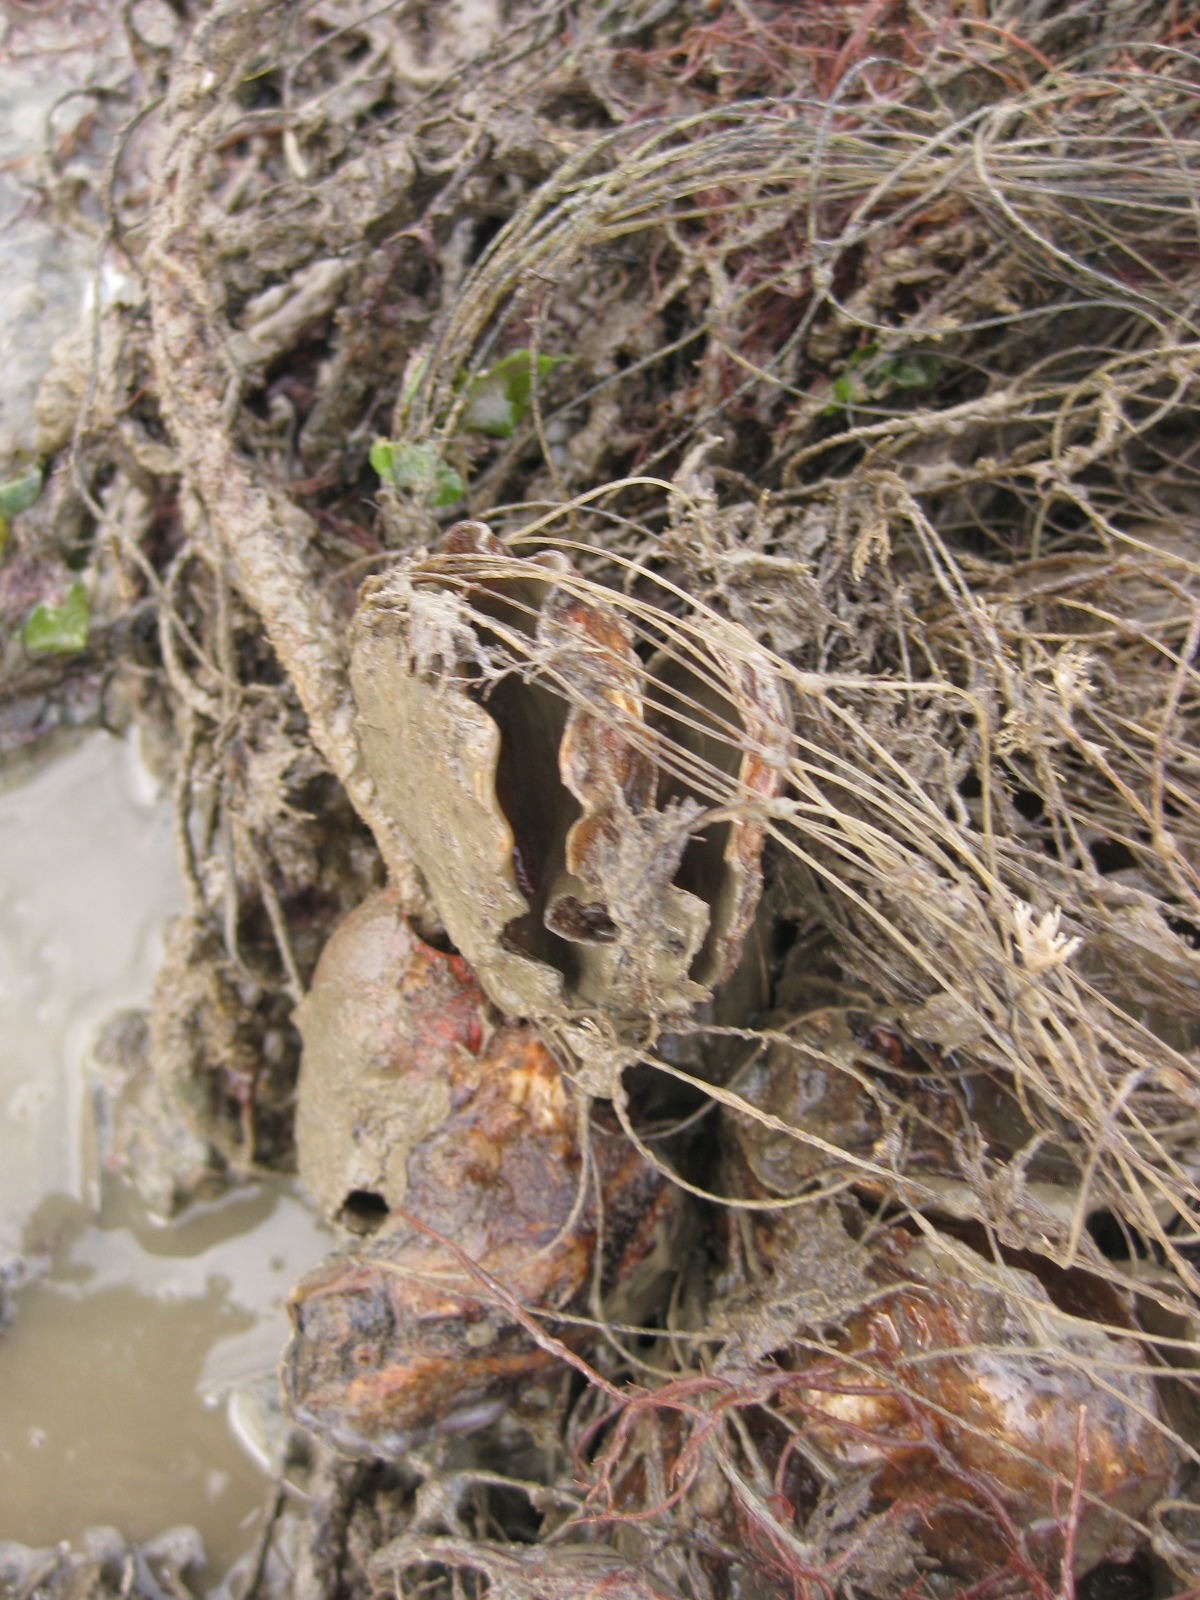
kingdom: Animalia
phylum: Mollusca
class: Bivalvia
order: Ostreida
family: Ostreidae
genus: Magallana
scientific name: Magallana gigas
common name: Pacific oyster
